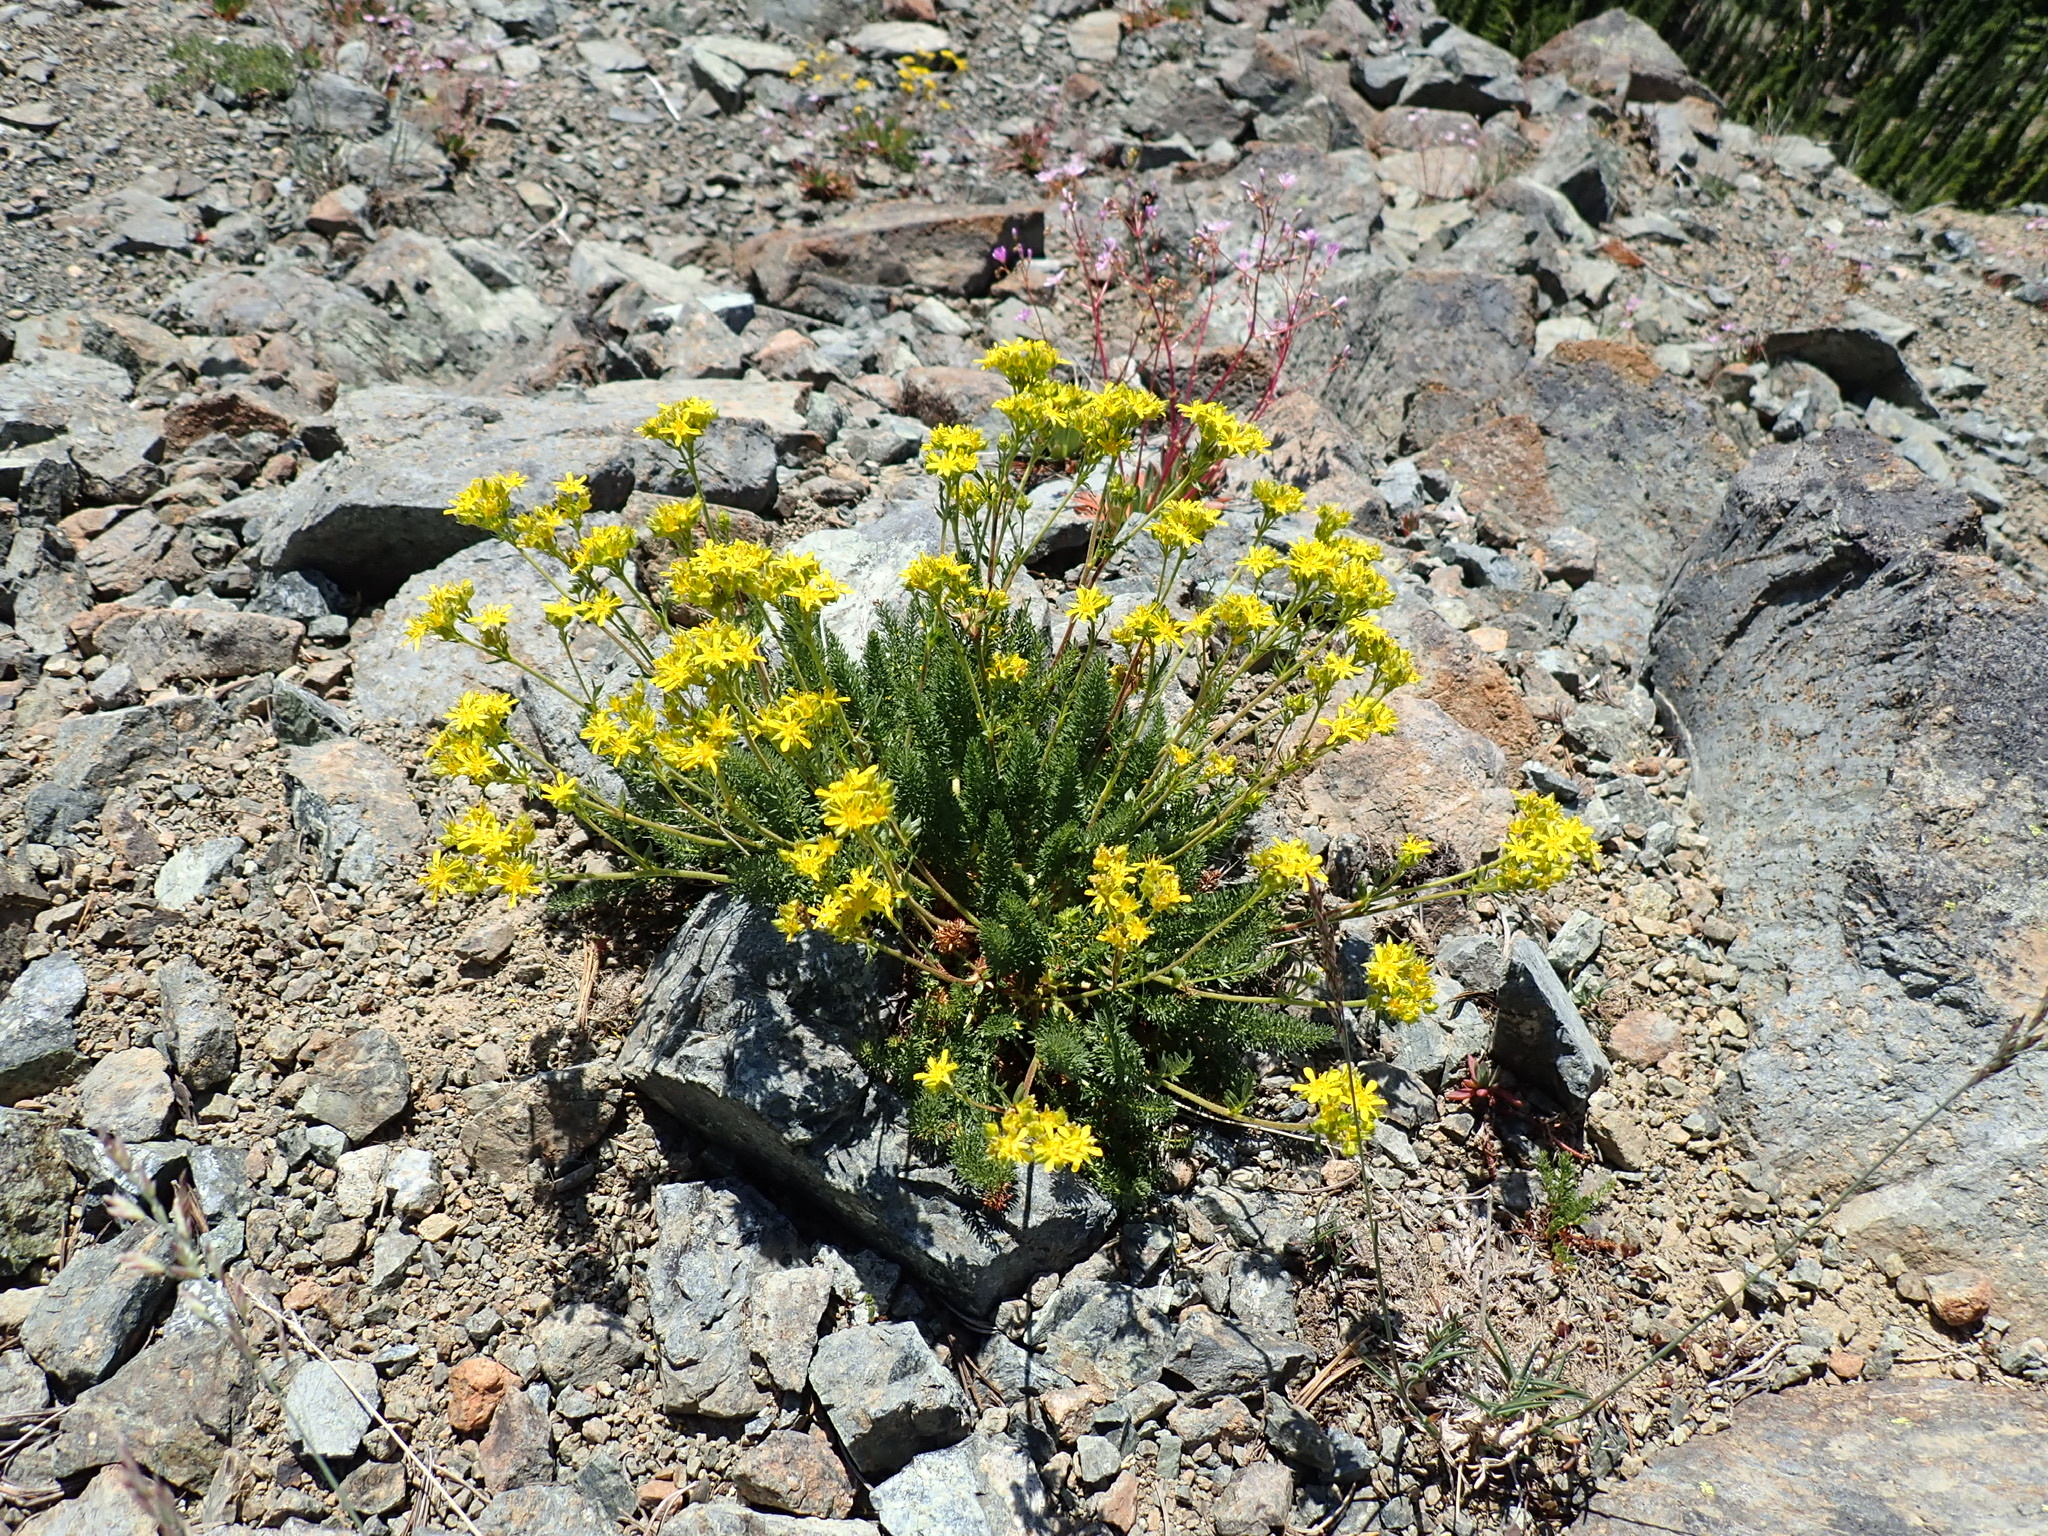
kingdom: Plantae
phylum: Tracheophyta
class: Magnoliopsida
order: Rosales
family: Rosaceae
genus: Potentilla
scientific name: Potentilla tweedyi
